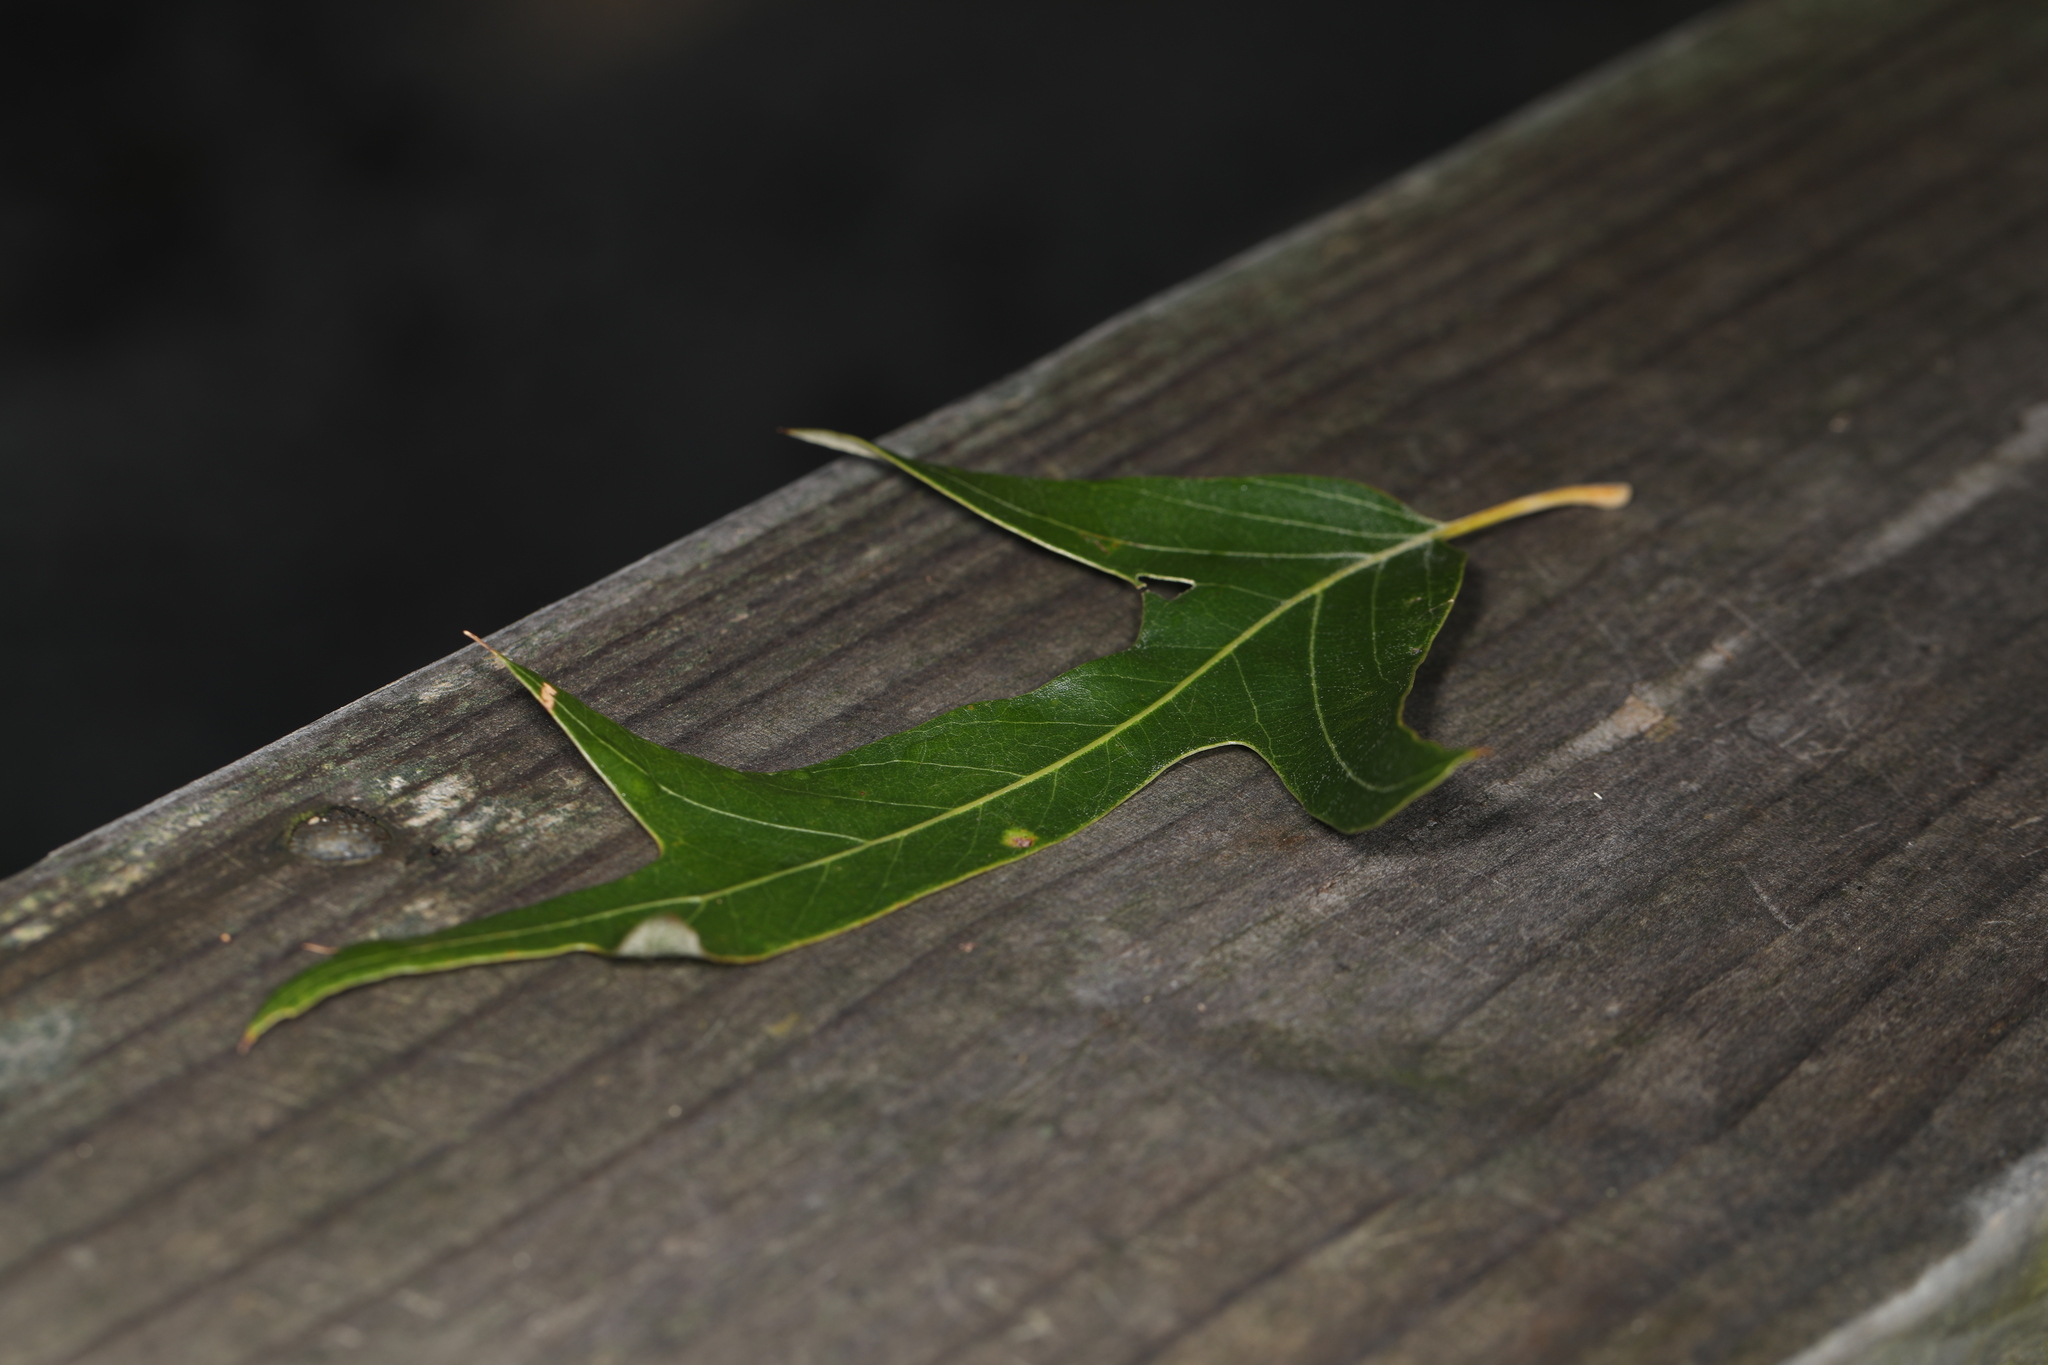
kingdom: Plantae
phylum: Tracheophyta
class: Magnoliopsida
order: Fagales
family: Fagaceae
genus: Quercus
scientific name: Quercus falcata
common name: Southern red oak
